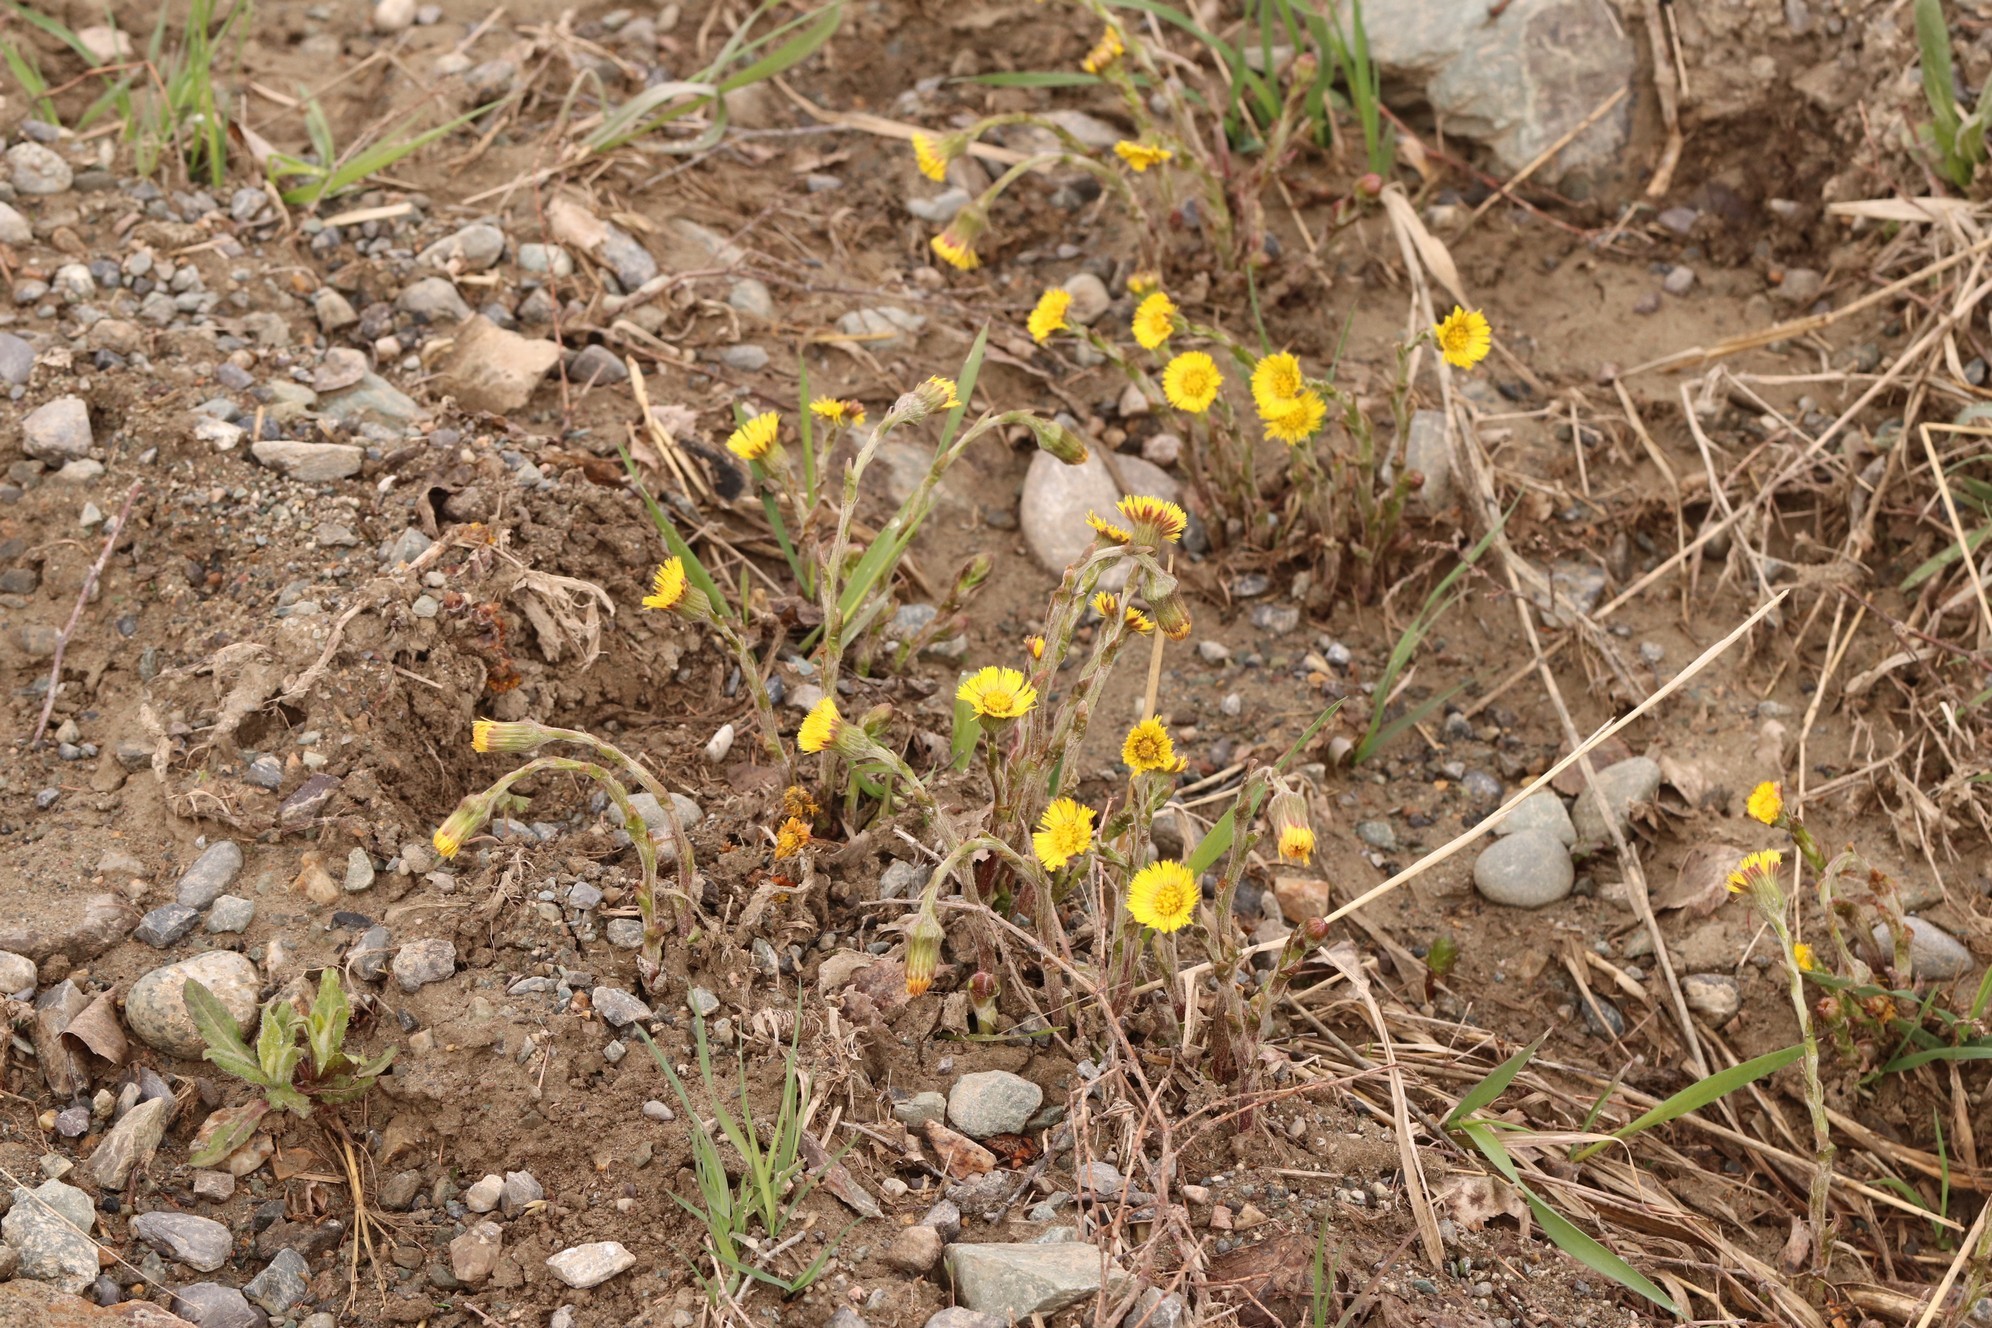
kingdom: Plantae
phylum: Tracheophyta
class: Magnoliopsida
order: Asterales
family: Asteraceae
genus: Tussilago
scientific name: Tussilago farfara
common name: Coltsfoot
